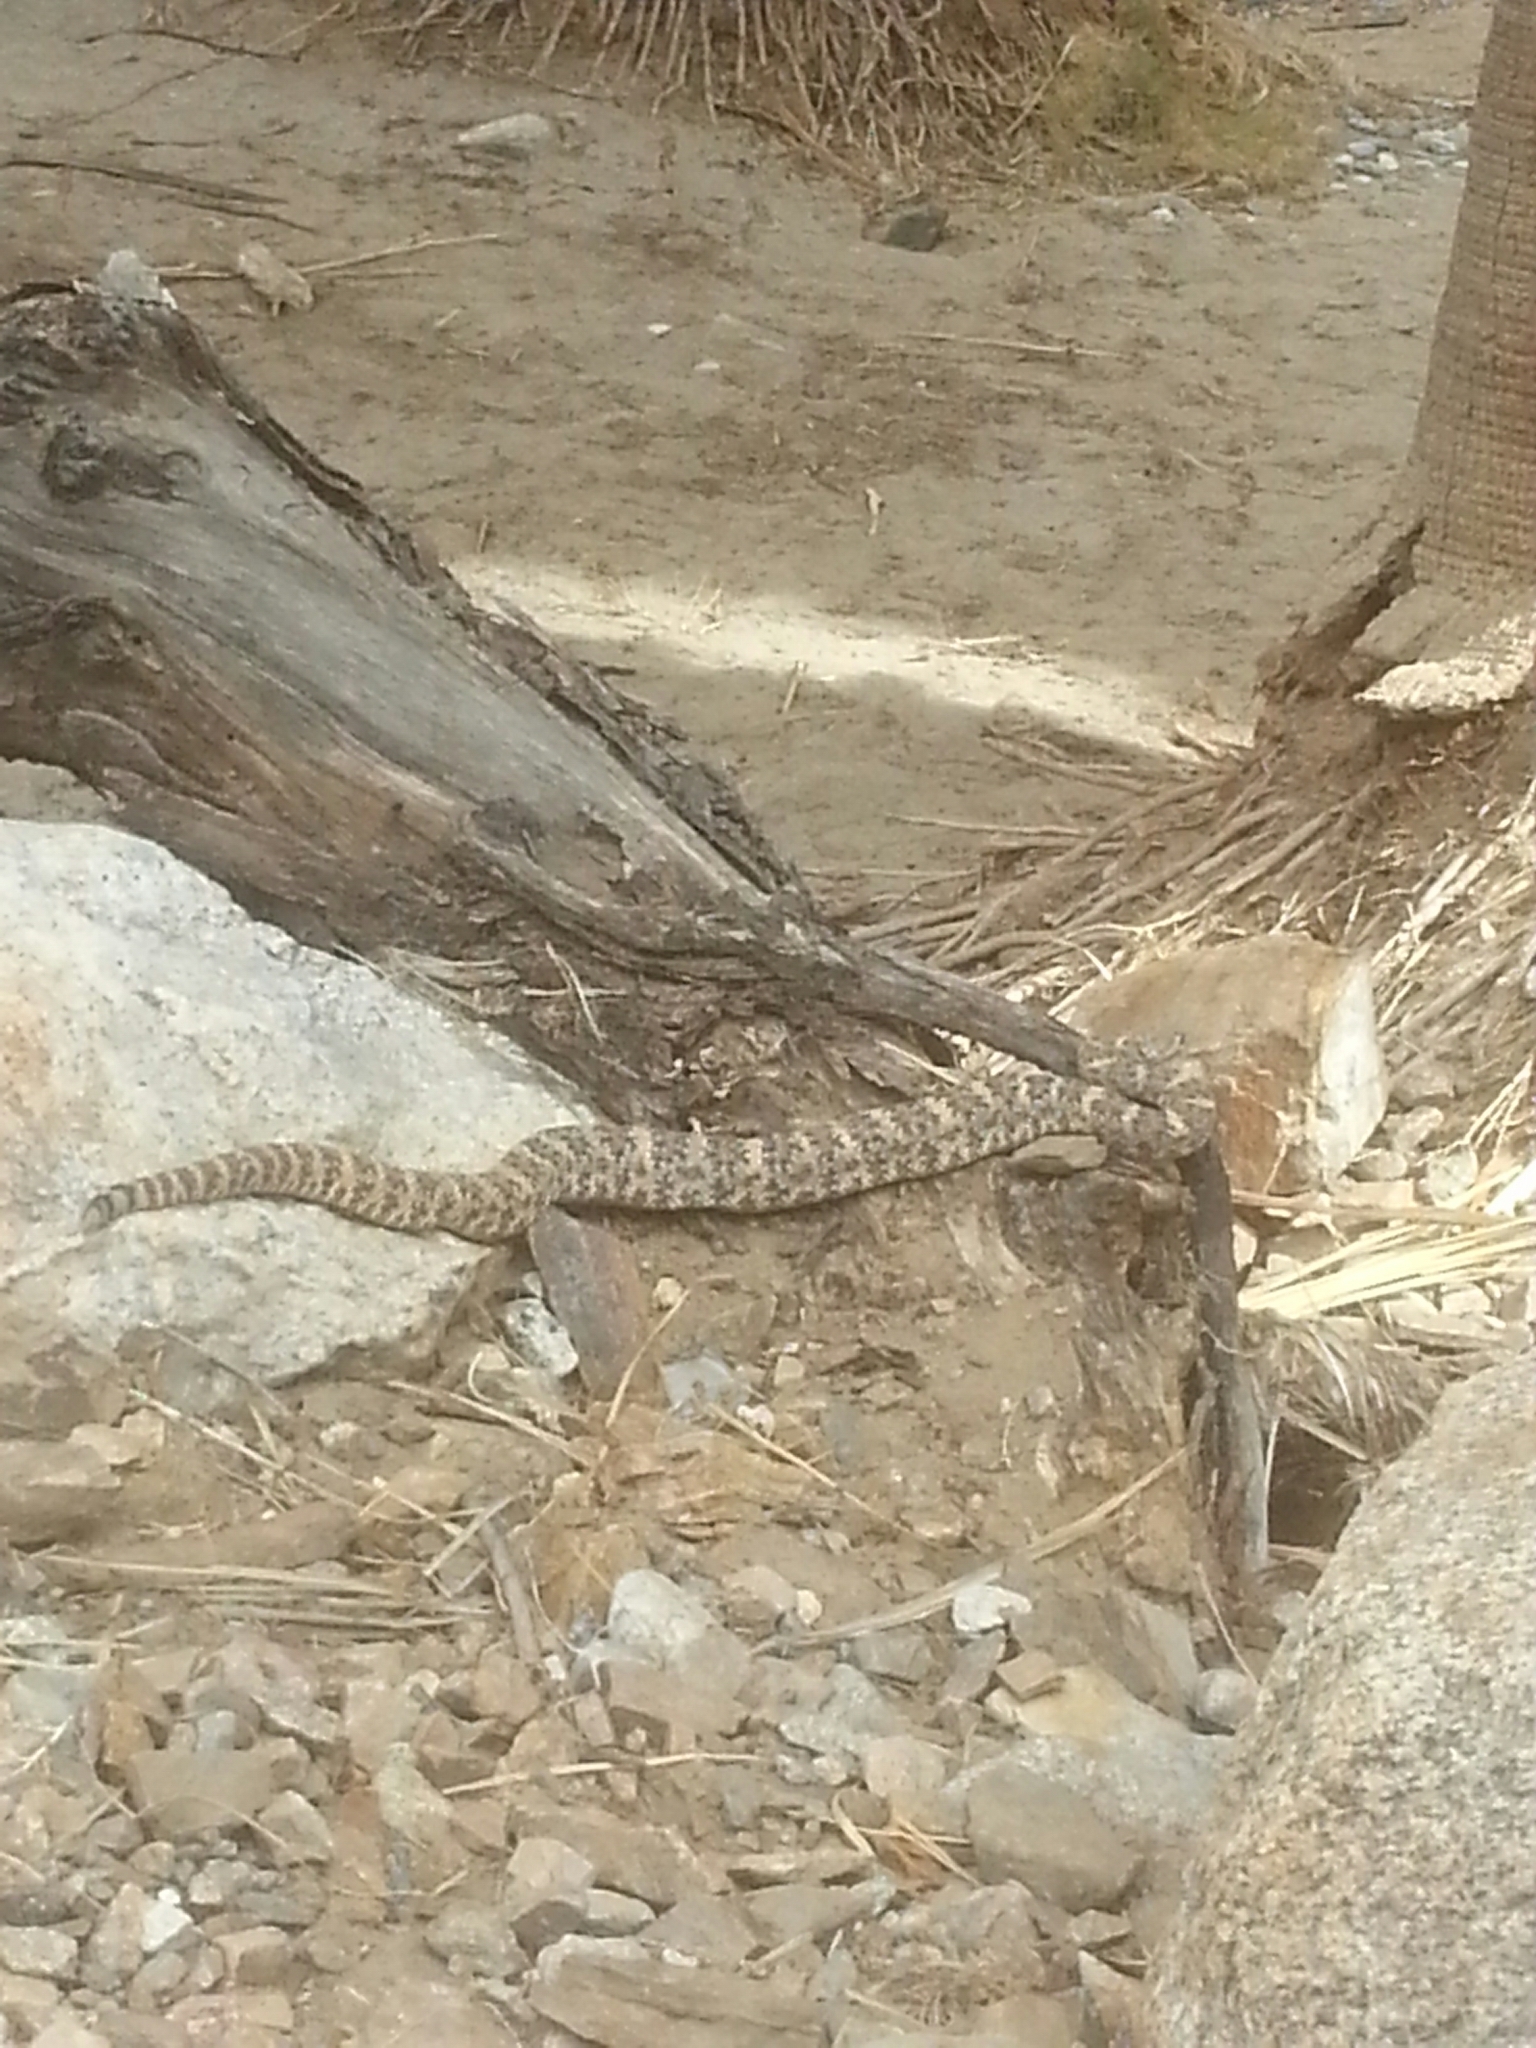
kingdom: Animalia
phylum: Chordata
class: Squamata
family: Viperidae
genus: Crotalus
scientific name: Crotalus pyrrhus
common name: Southwestern speckled rattlesnake
